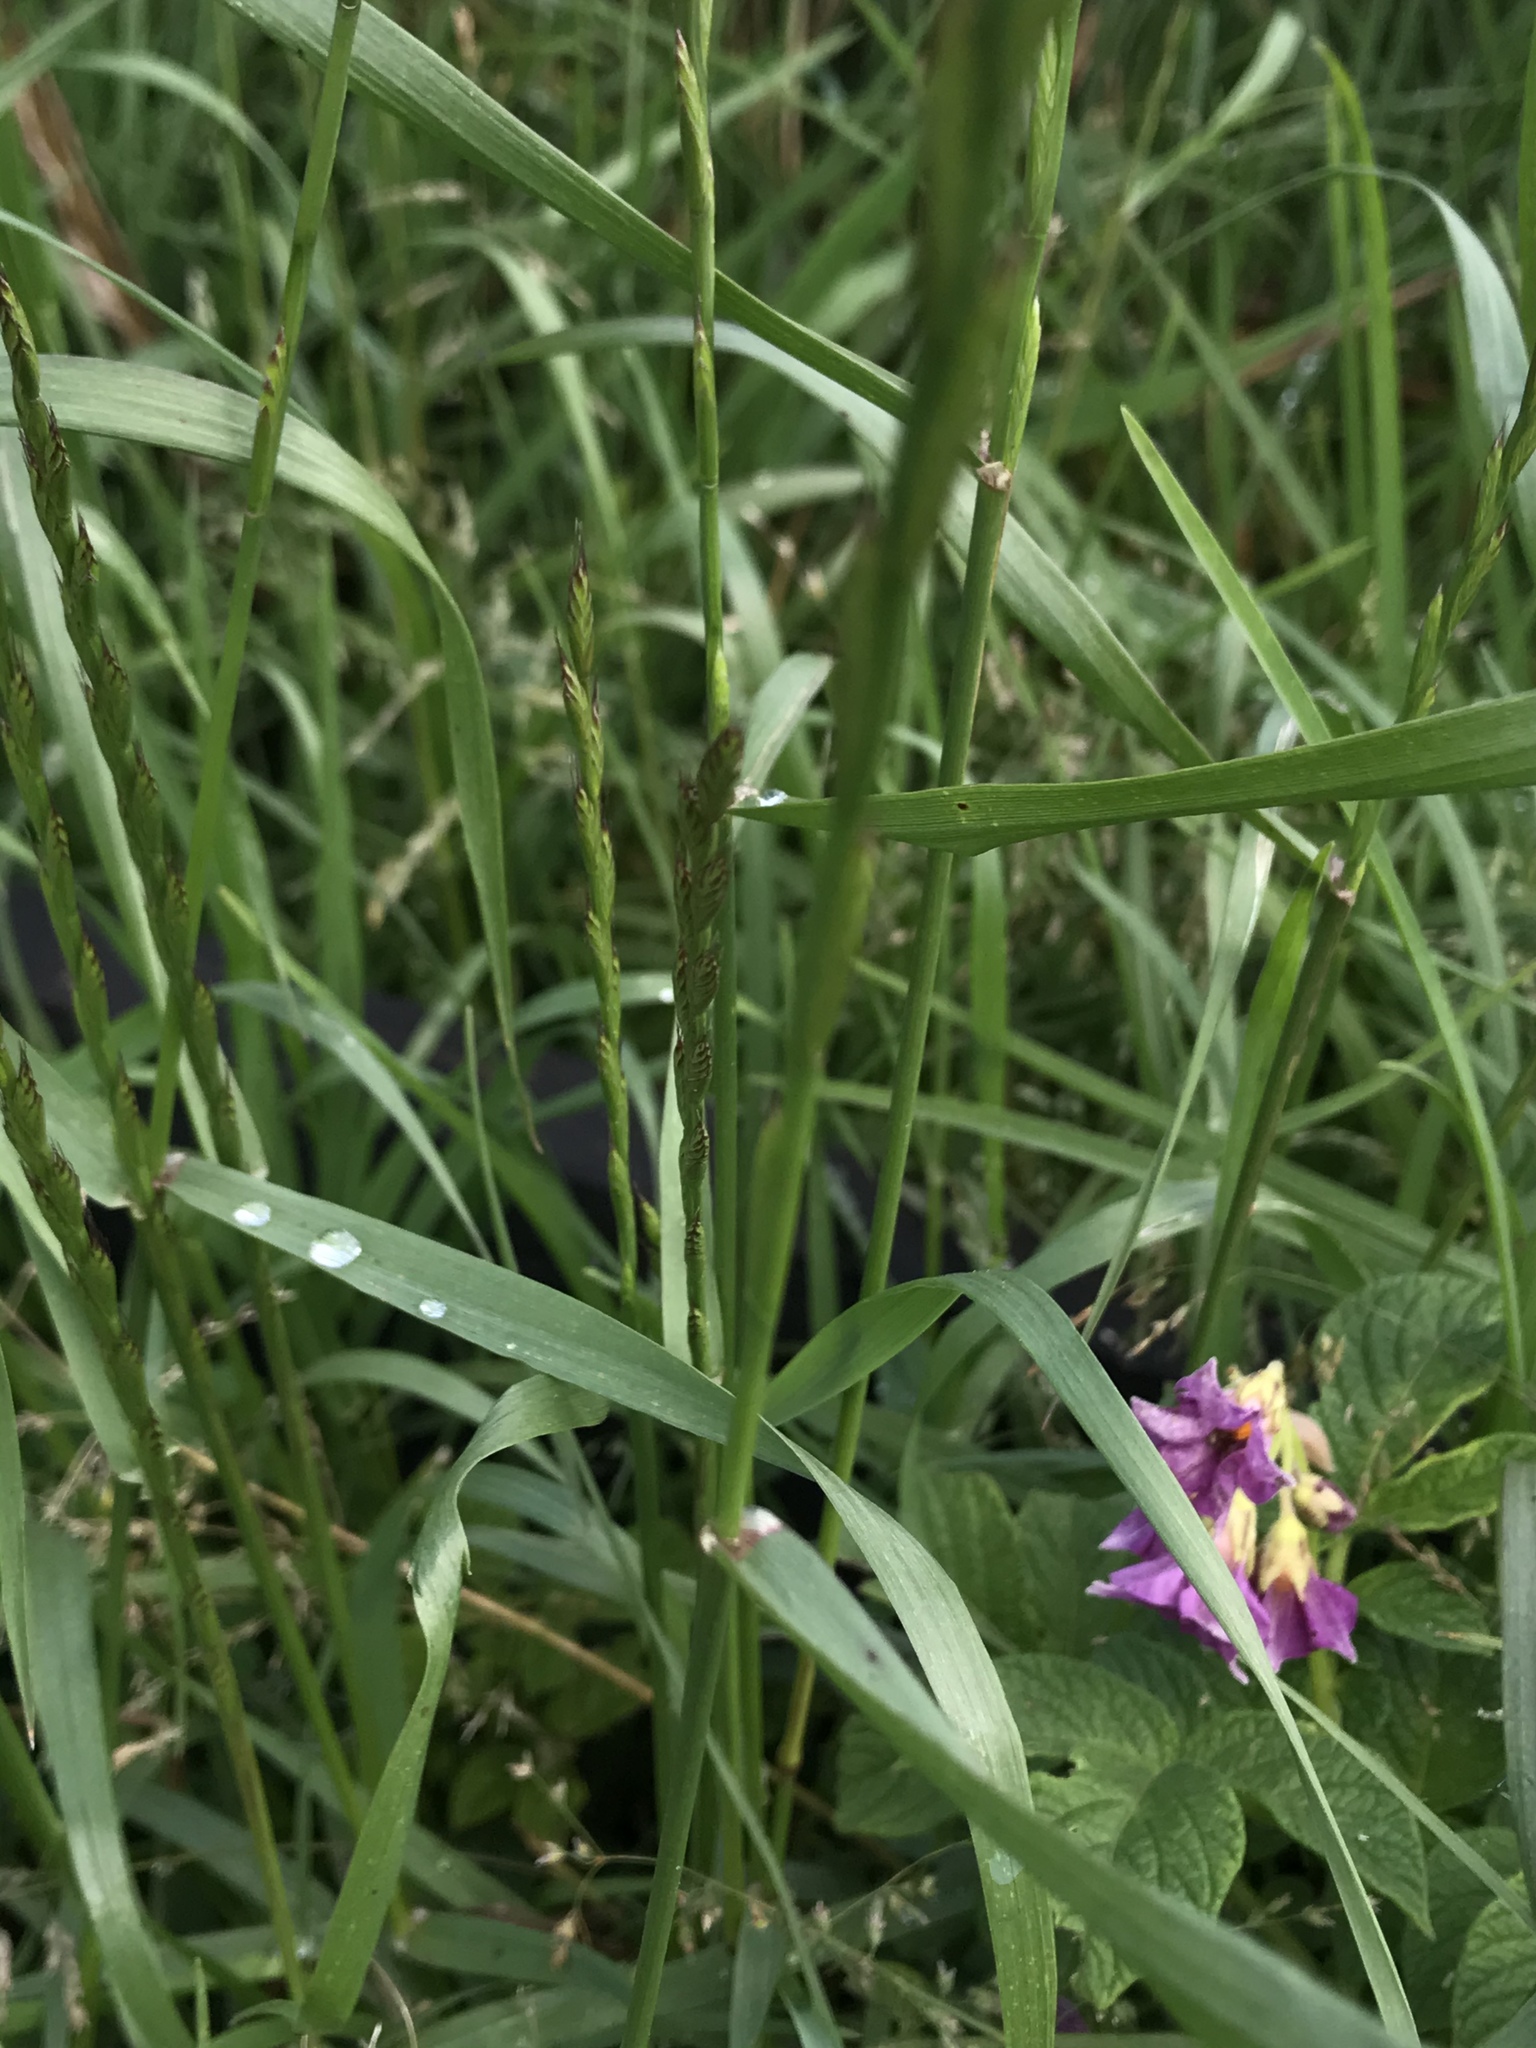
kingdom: Plantae
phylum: Tracheophyta
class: Liliopsida
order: Poales
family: Poaceae
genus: Lolium
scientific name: Lolium multiflorum
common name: Annual ryegrass
